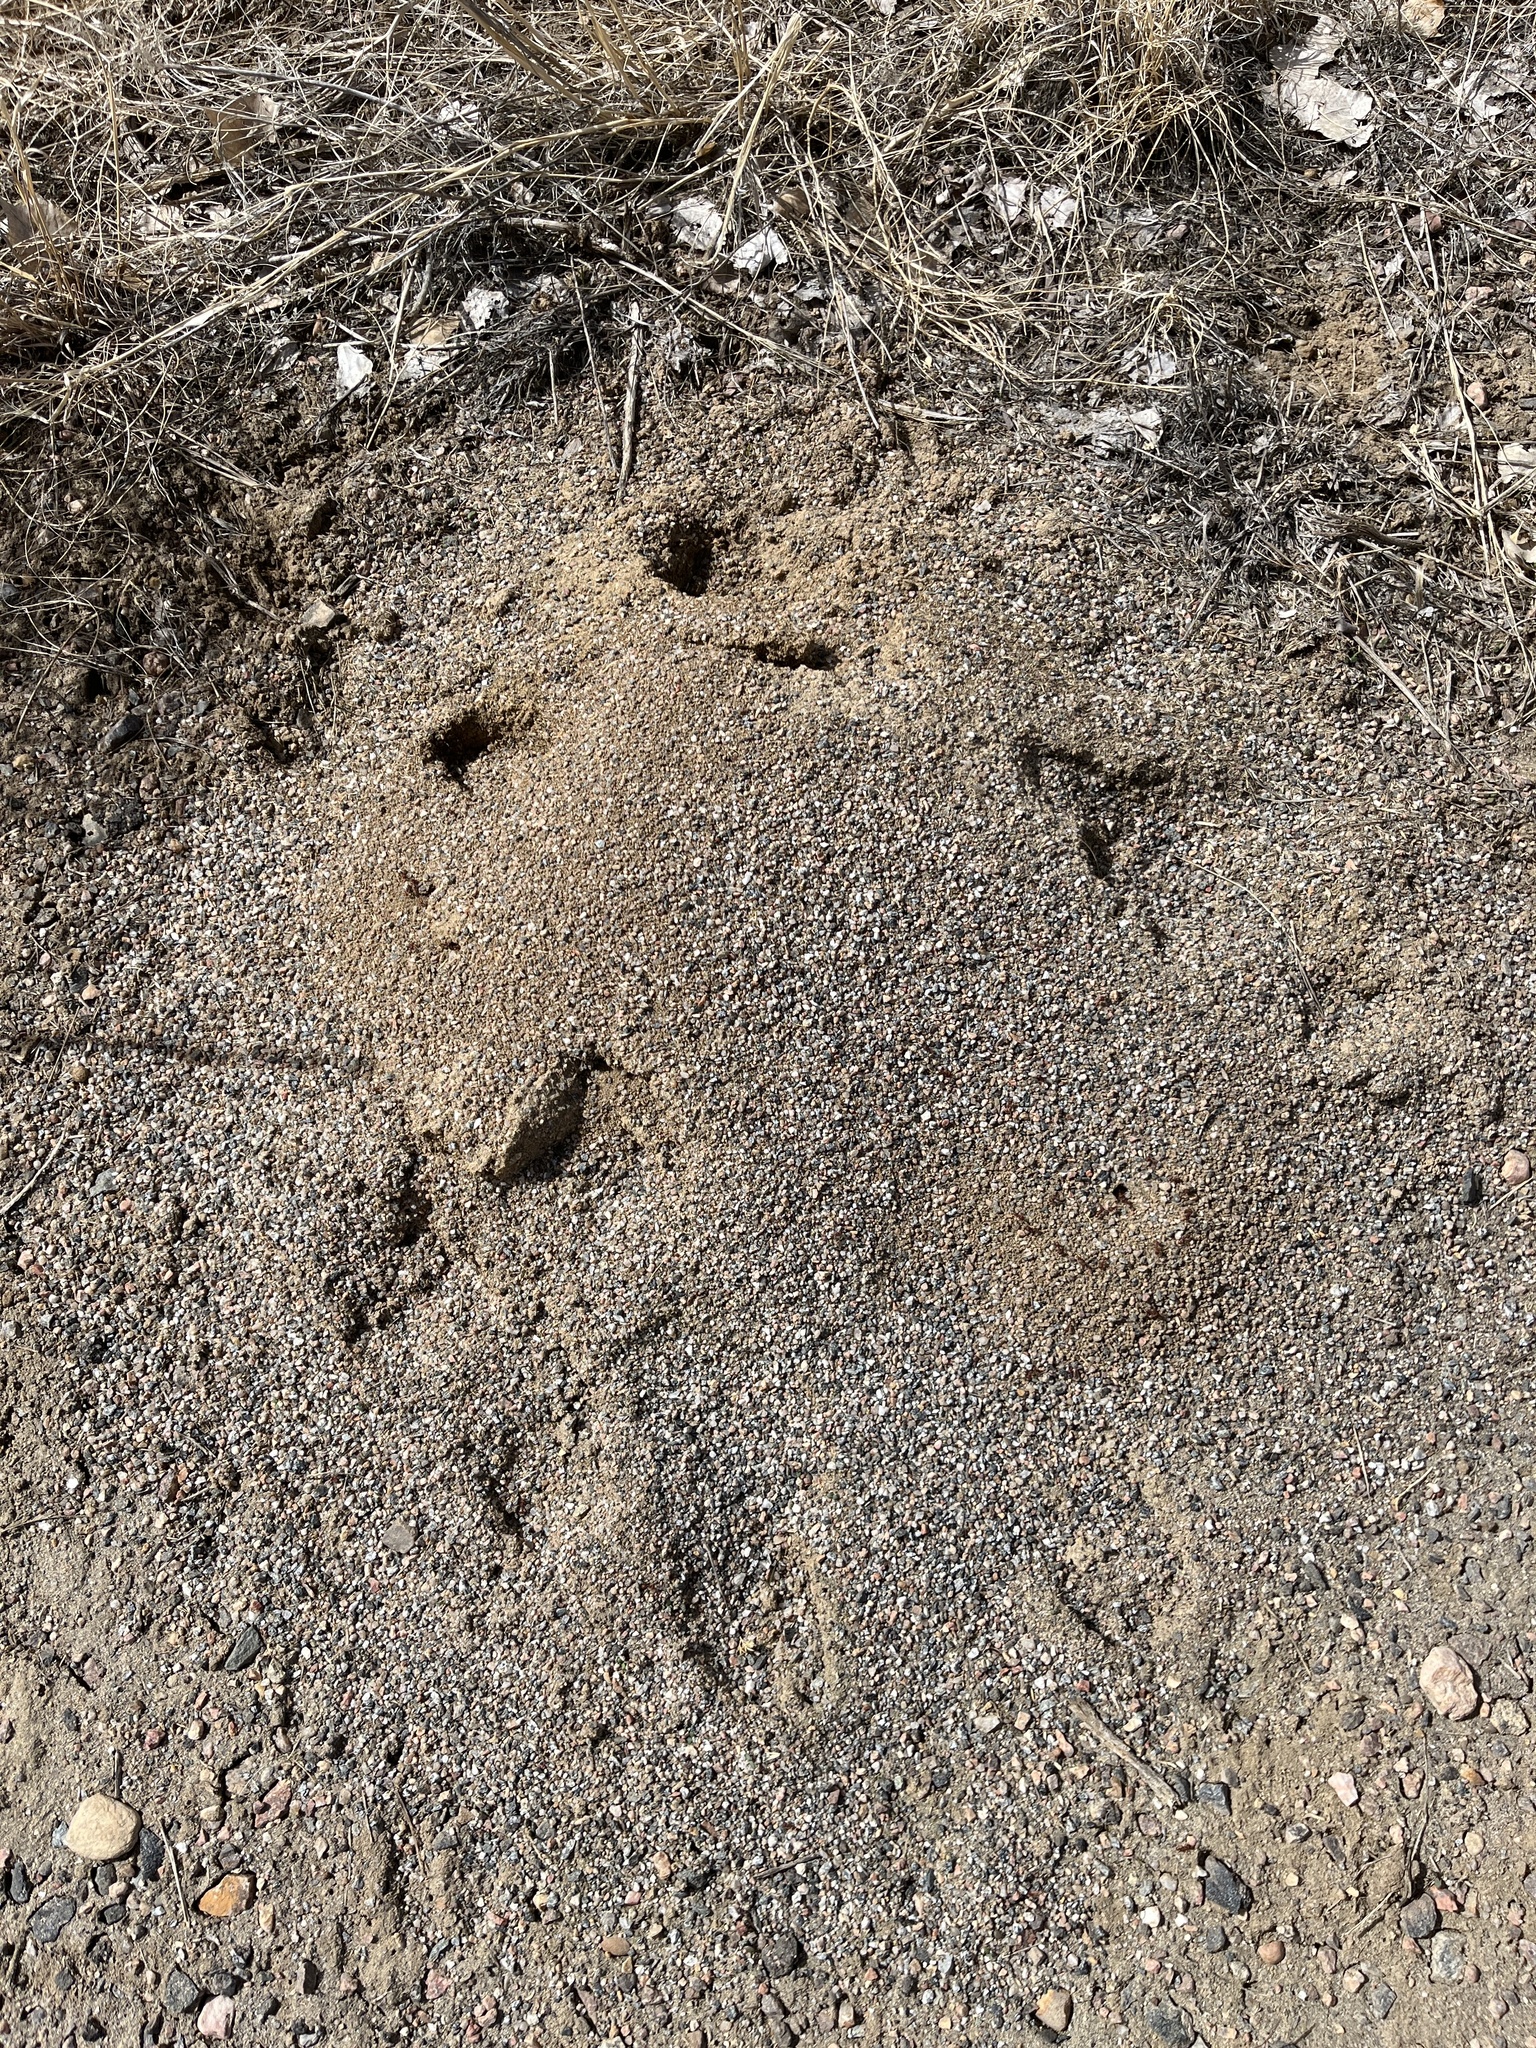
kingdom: Animalia
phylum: Arthropoda
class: Insecta
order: Hymenoptera
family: Formicidae
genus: Pogonomyrmex
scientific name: Pogonomyrmex occidentalis
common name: Western harvester ant
